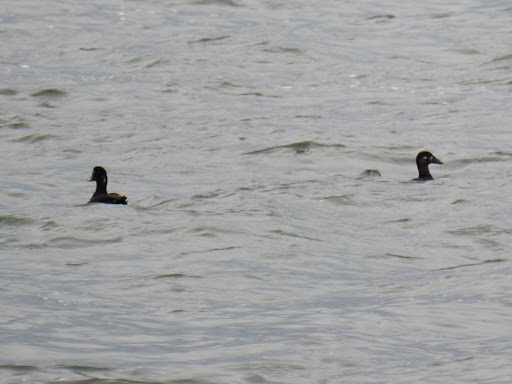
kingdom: Animalia
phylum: Chordata
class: Aves
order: Anseriformes
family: Anatidae
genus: Melanitta
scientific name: Melanitta perspicillata
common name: Surf scoter
